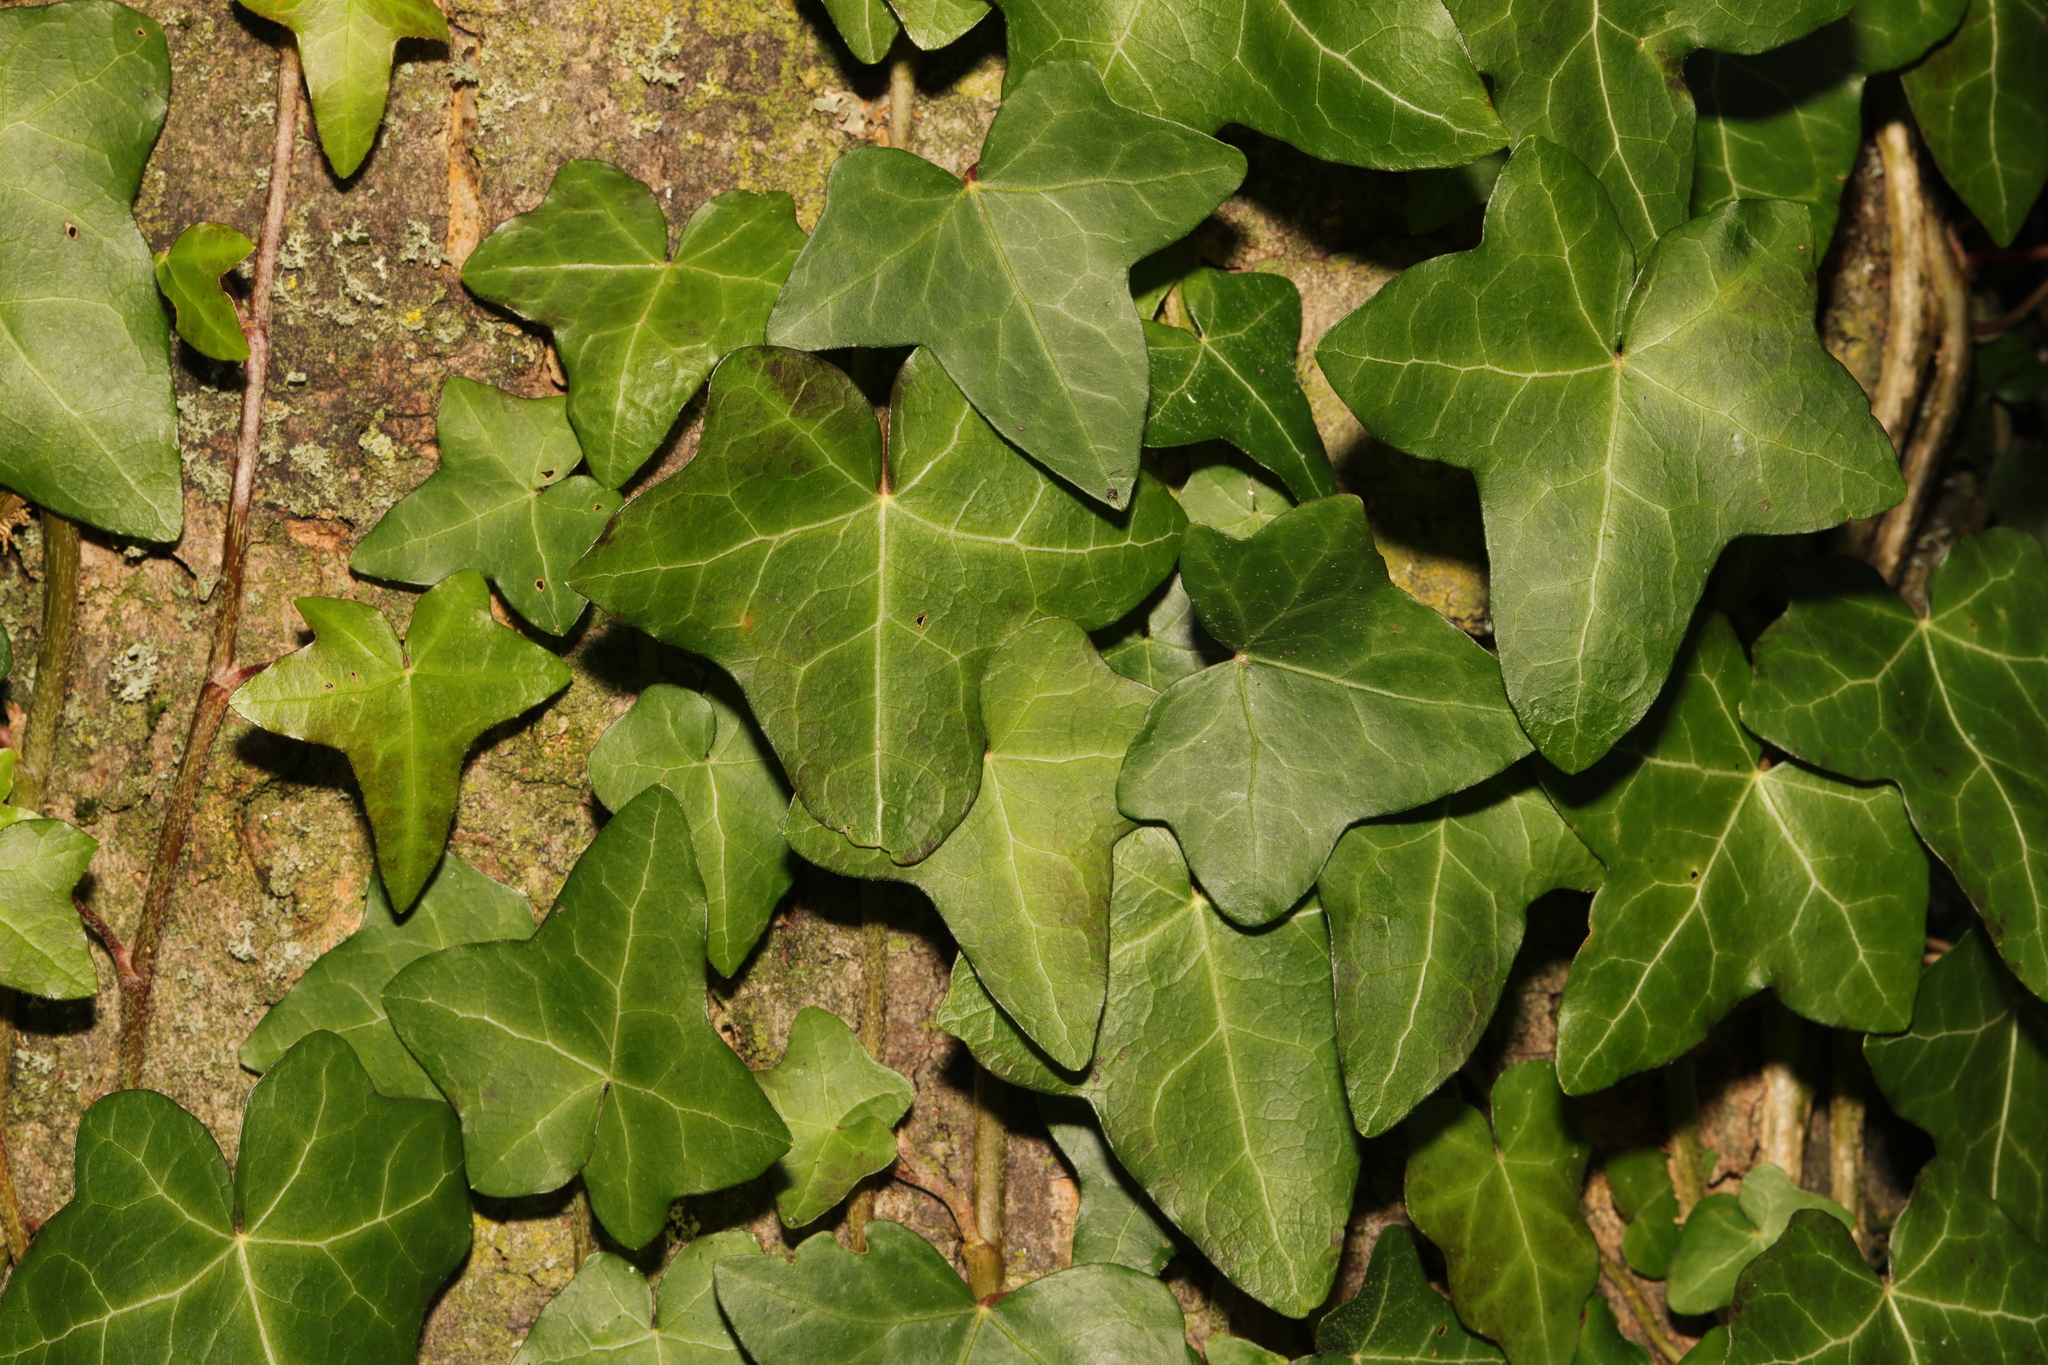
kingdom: Plantae
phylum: Tracheophyta
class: Magnoliopsida
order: Apiales
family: Araliaceae
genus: Hedera
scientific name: Hedera helix
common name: Ivy
